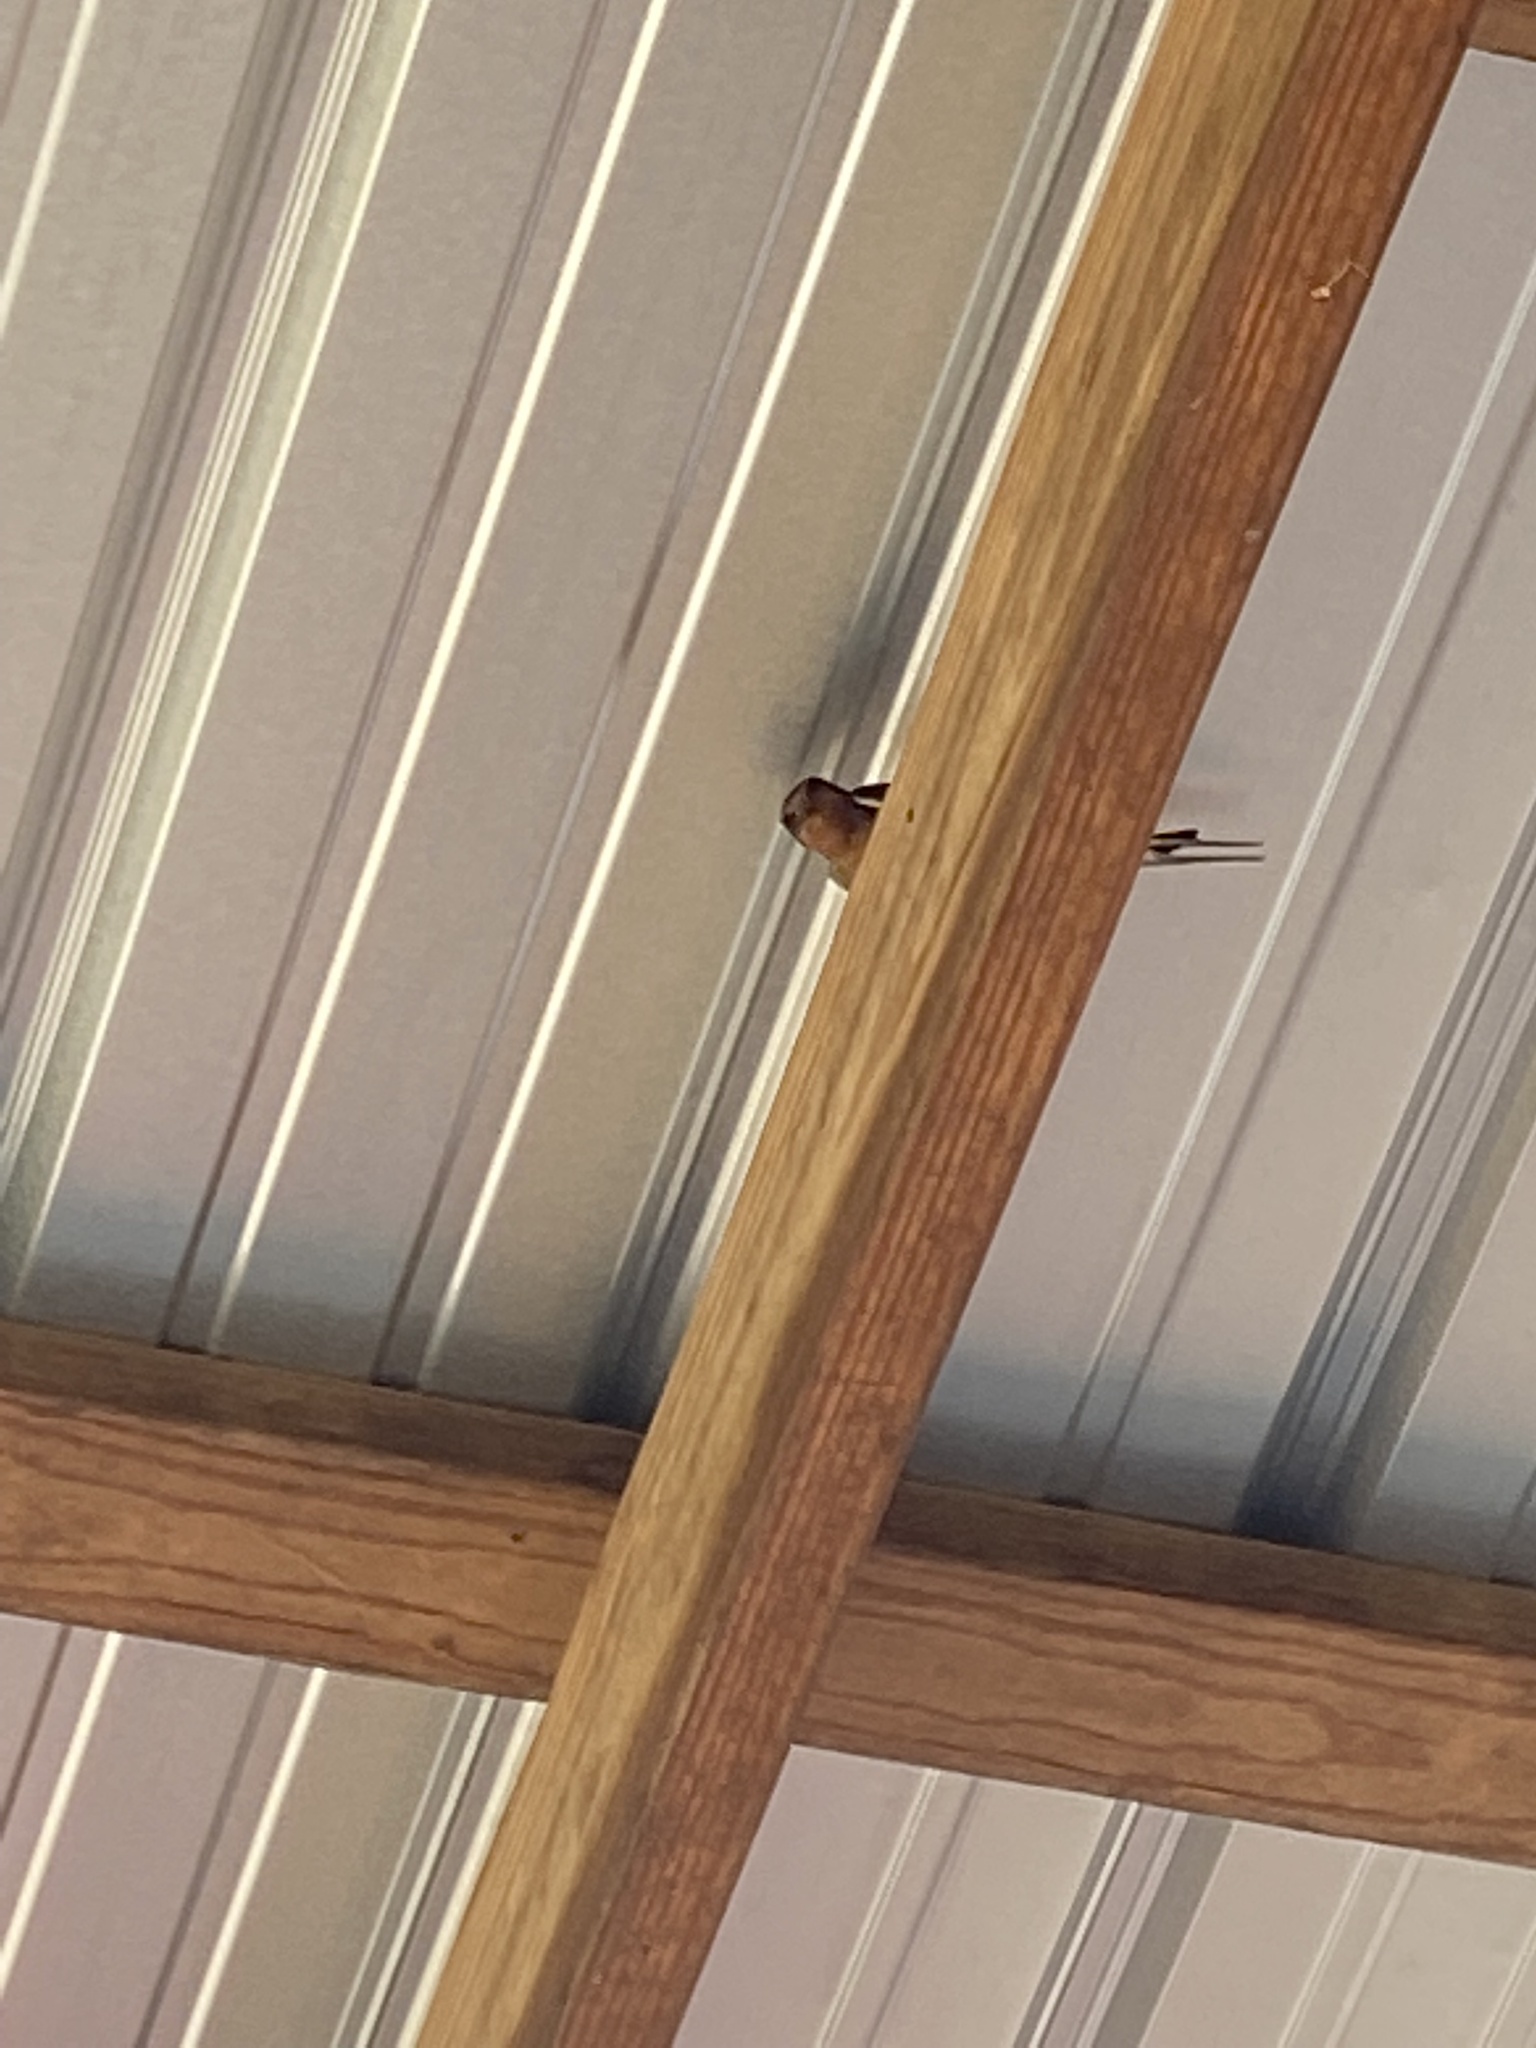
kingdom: Animalia
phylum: Chordata
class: Aves
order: Passeriformes
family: Hirundinidae
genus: Hirundo
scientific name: Hirundo rustica
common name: Barn swallow
